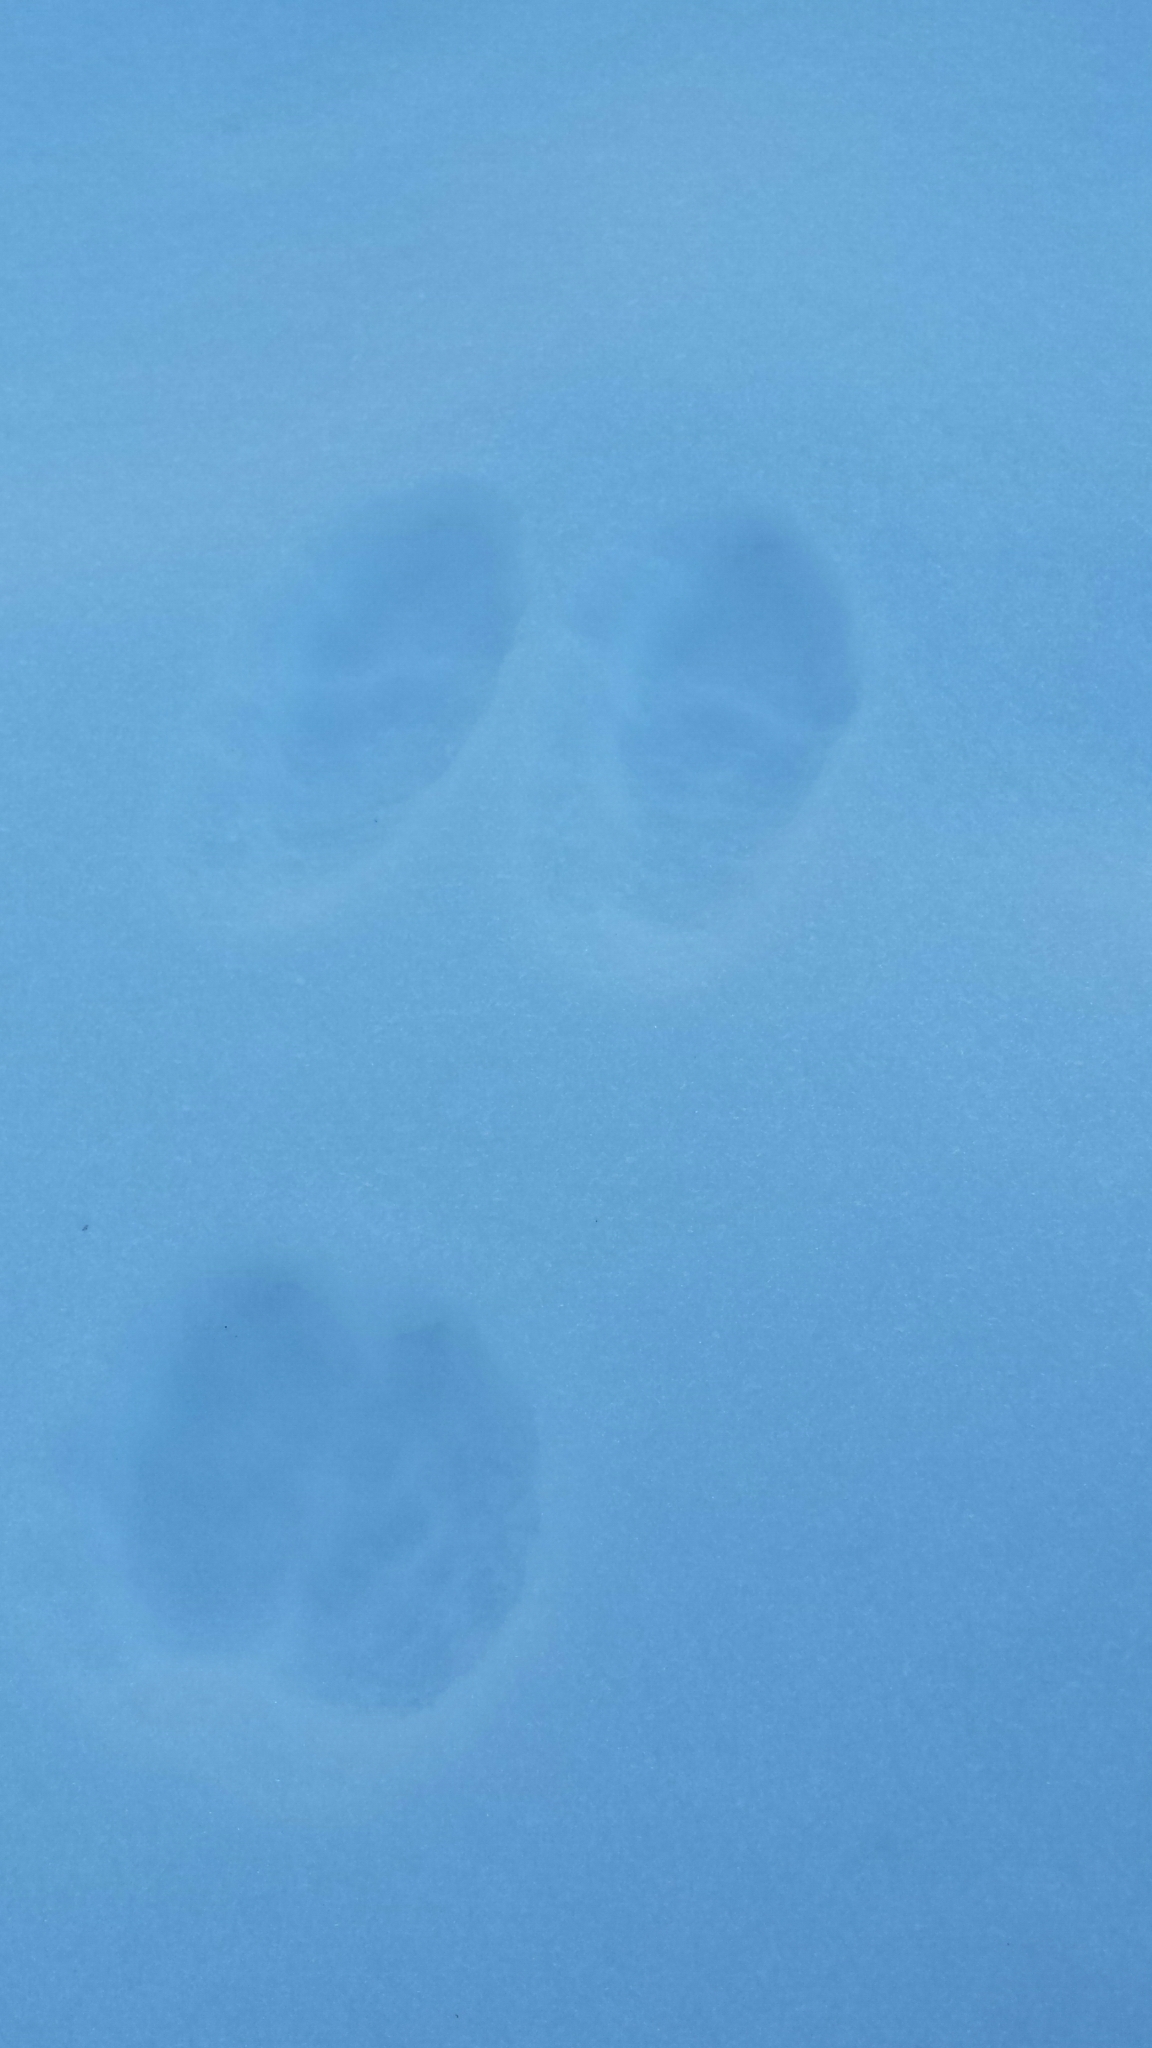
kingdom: Animalia
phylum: Chordata
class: Mammalia
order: Lagomorpha
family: Leporidae
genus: Lepus
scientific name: Lepus americanus
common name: Snowshoe hare
